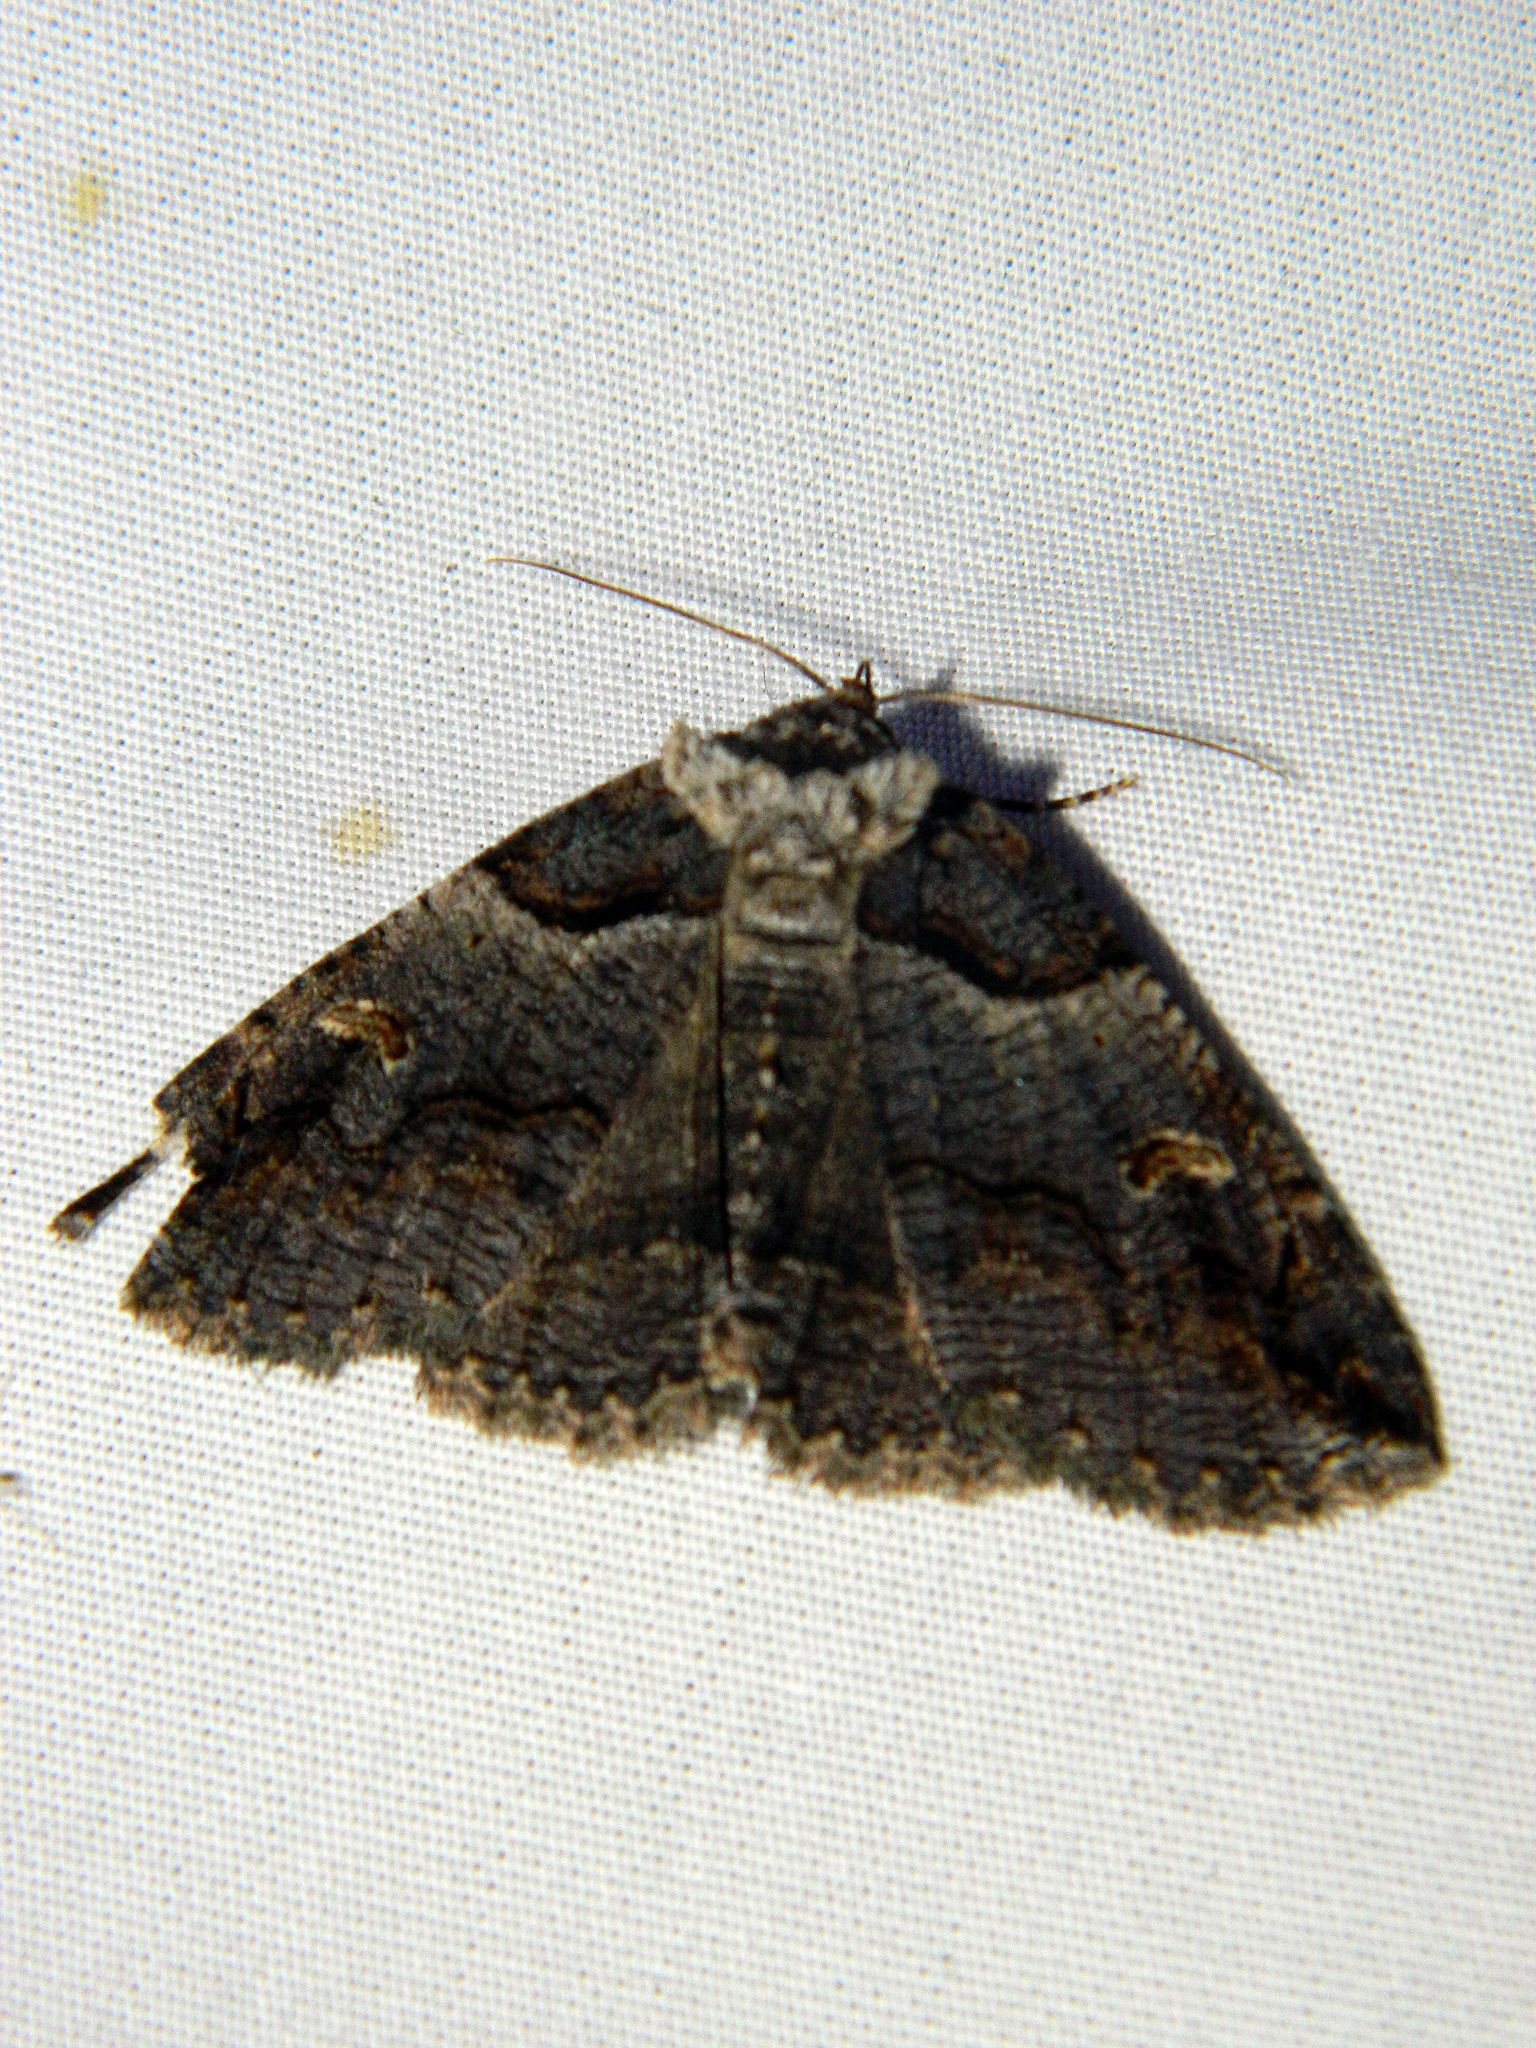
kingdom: Animalia
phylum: Arthropoda
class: Insecta
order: Lepidoptera
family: Erebidae
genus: Zale
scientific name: Zale intenta
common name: Intent zale moth
